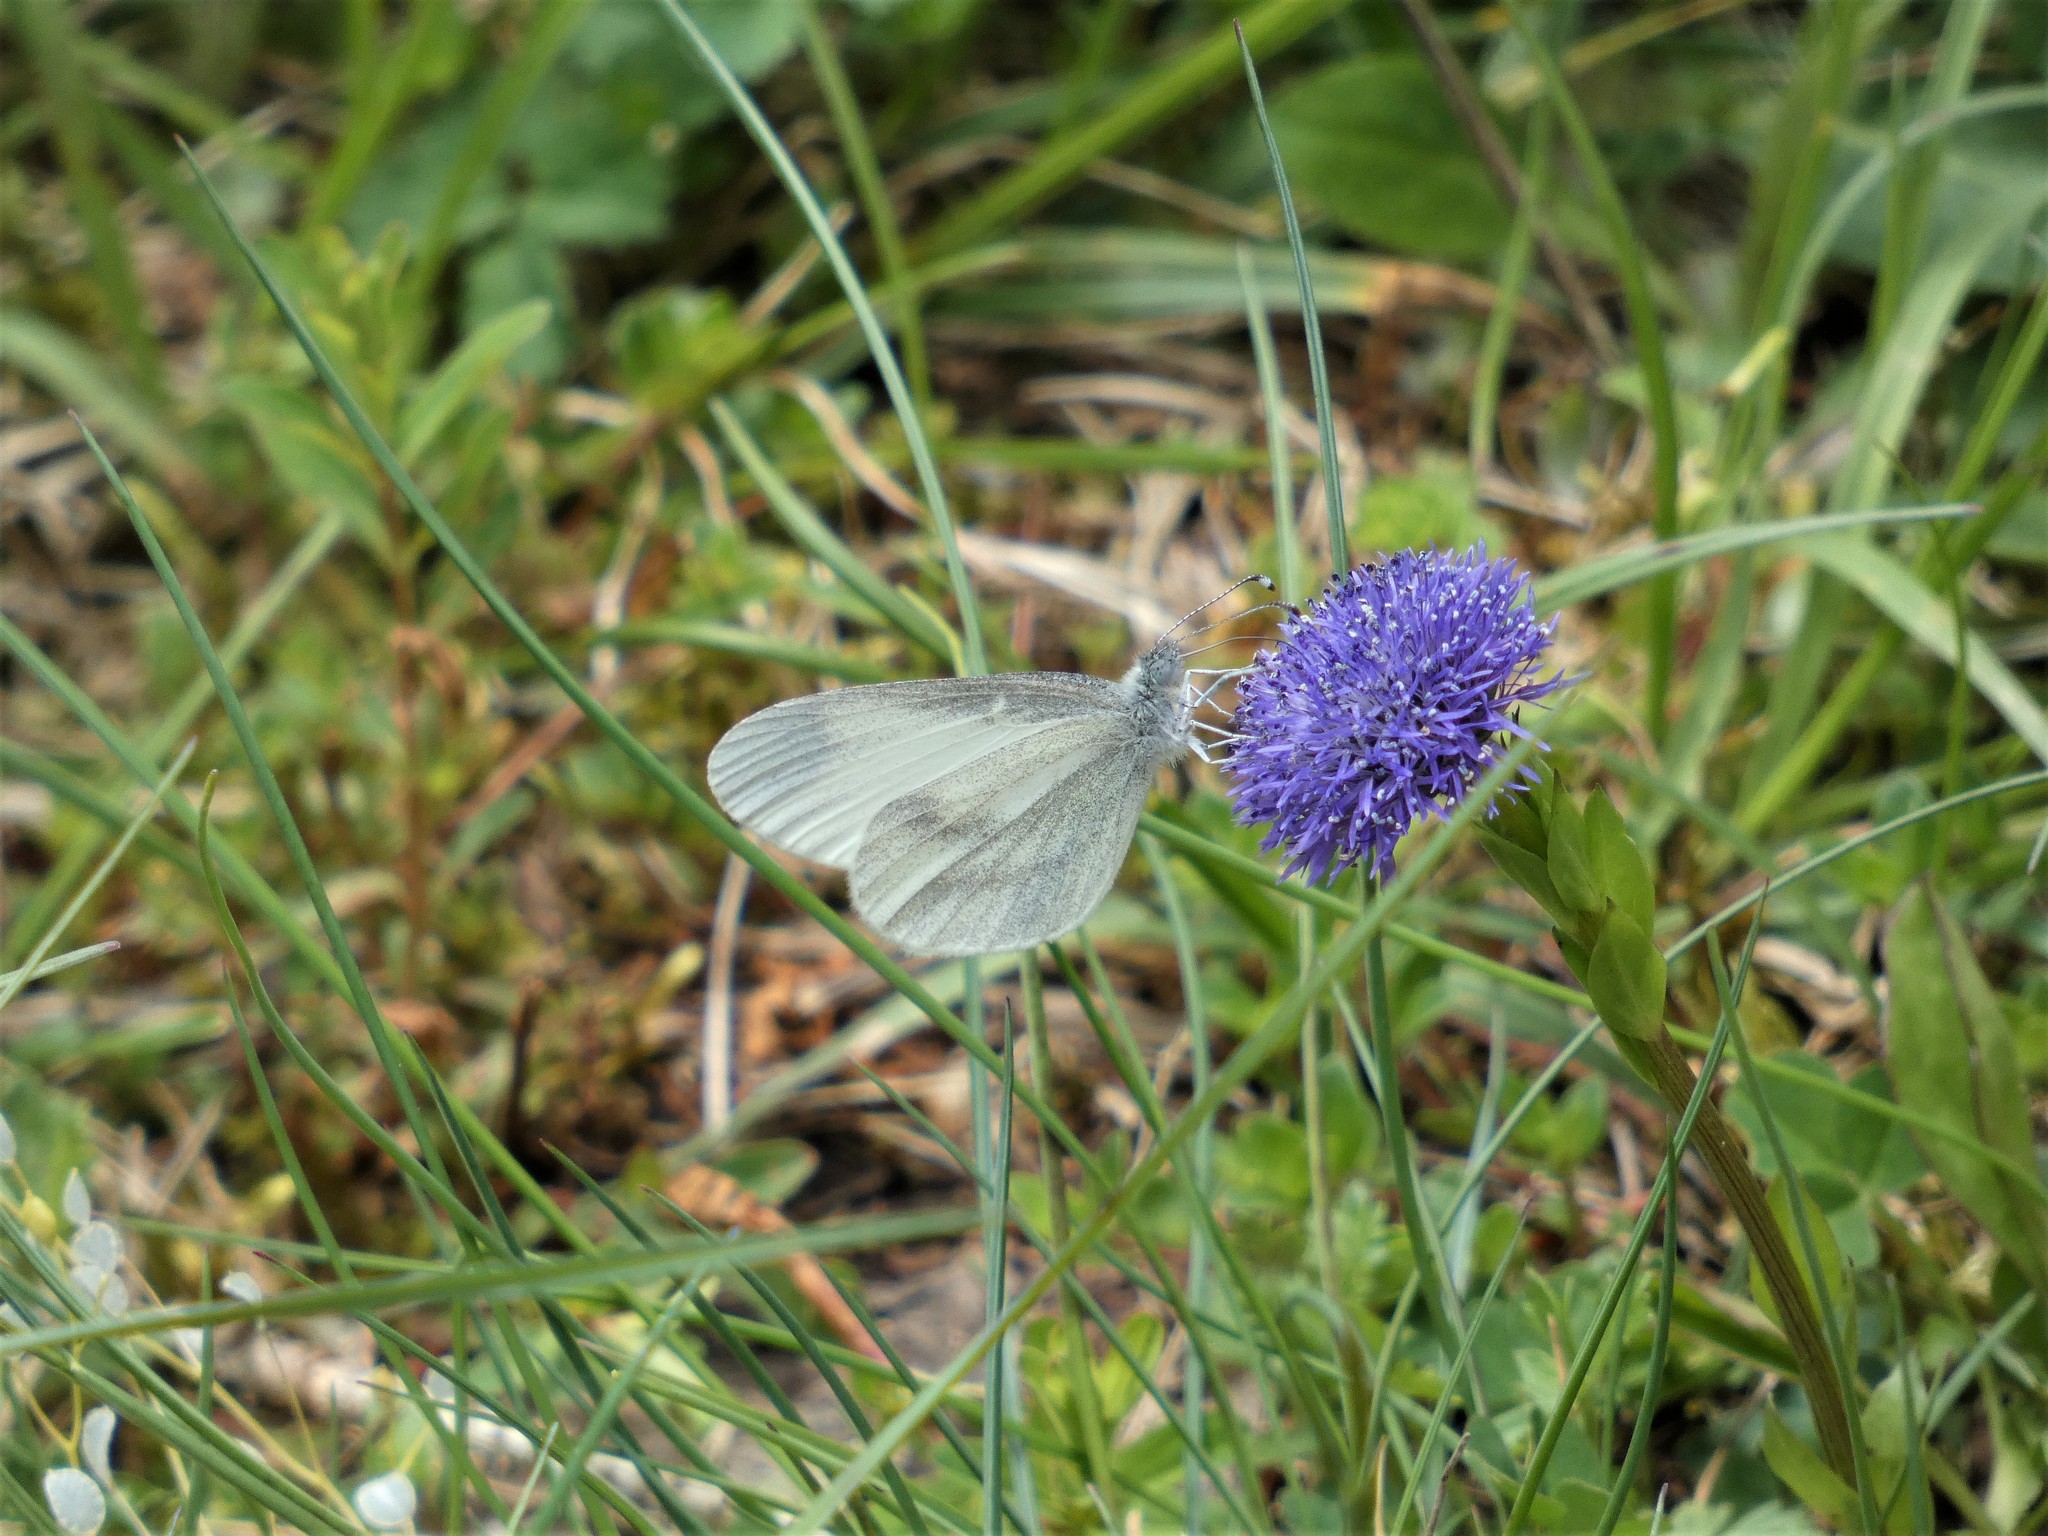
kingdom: Animalia
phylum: Arthropoda
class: Insecta
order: Lepidoptera
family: Pieridae
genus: Leptidea
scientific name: Leptidea sinapis
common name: Wood white
